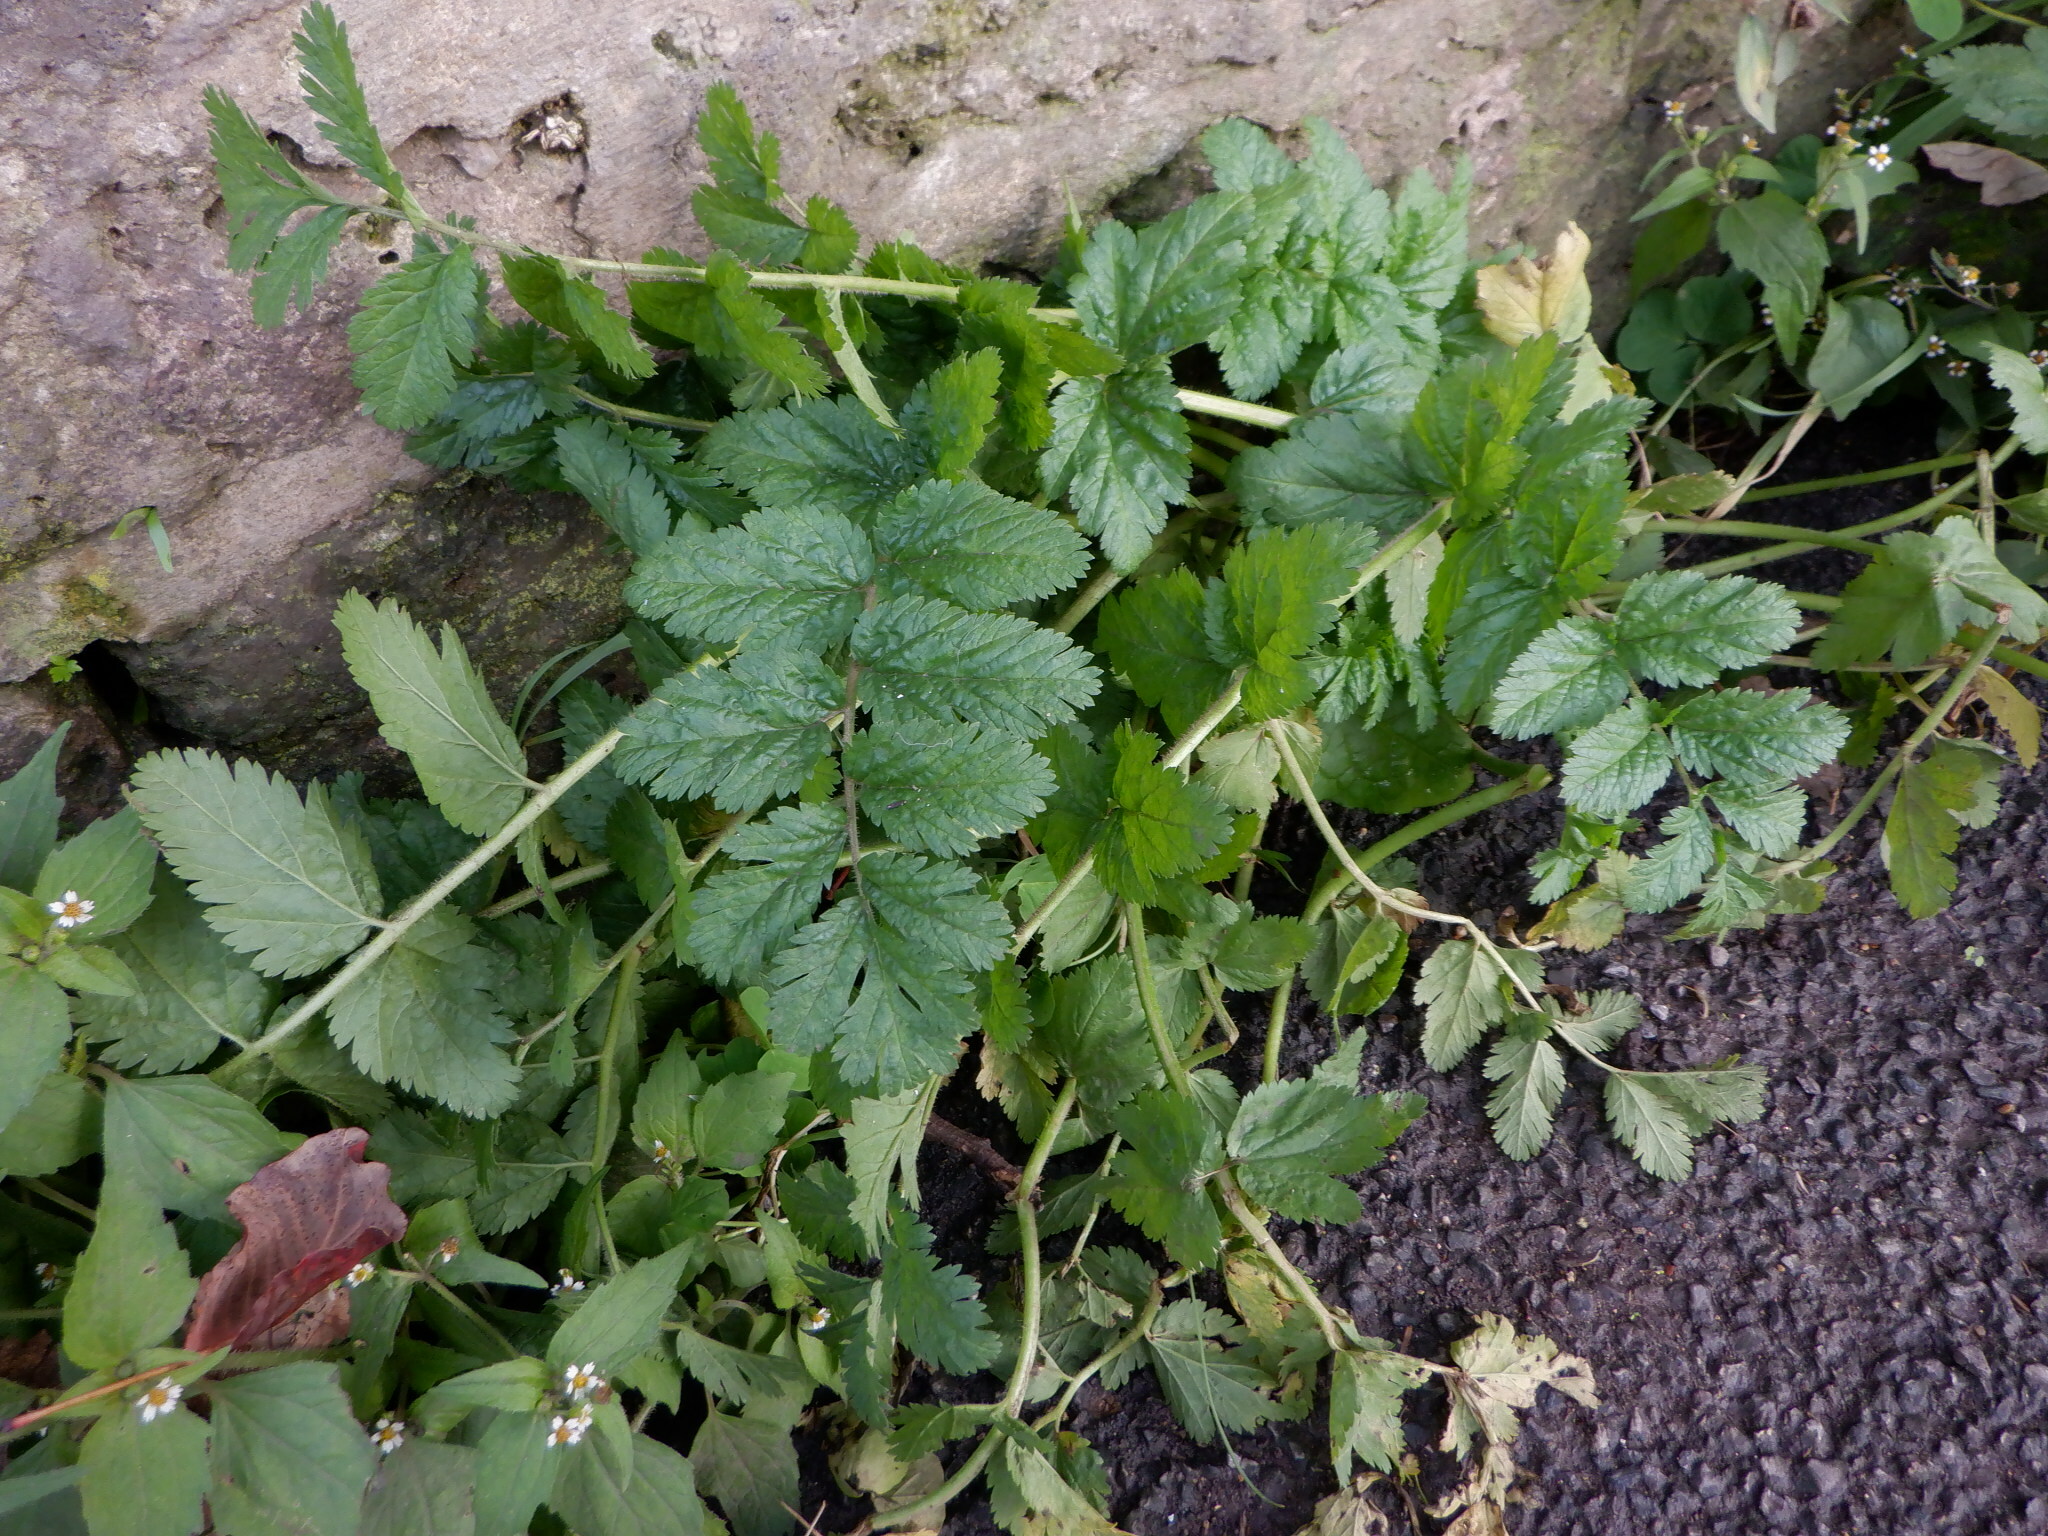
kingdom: Plantae
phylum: Tracheophyta
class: Magnoliopsida
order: Geraniales
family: Geraniaceae
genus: Erodium
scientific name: Erodium moschatum
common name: Musk stork's-bill
